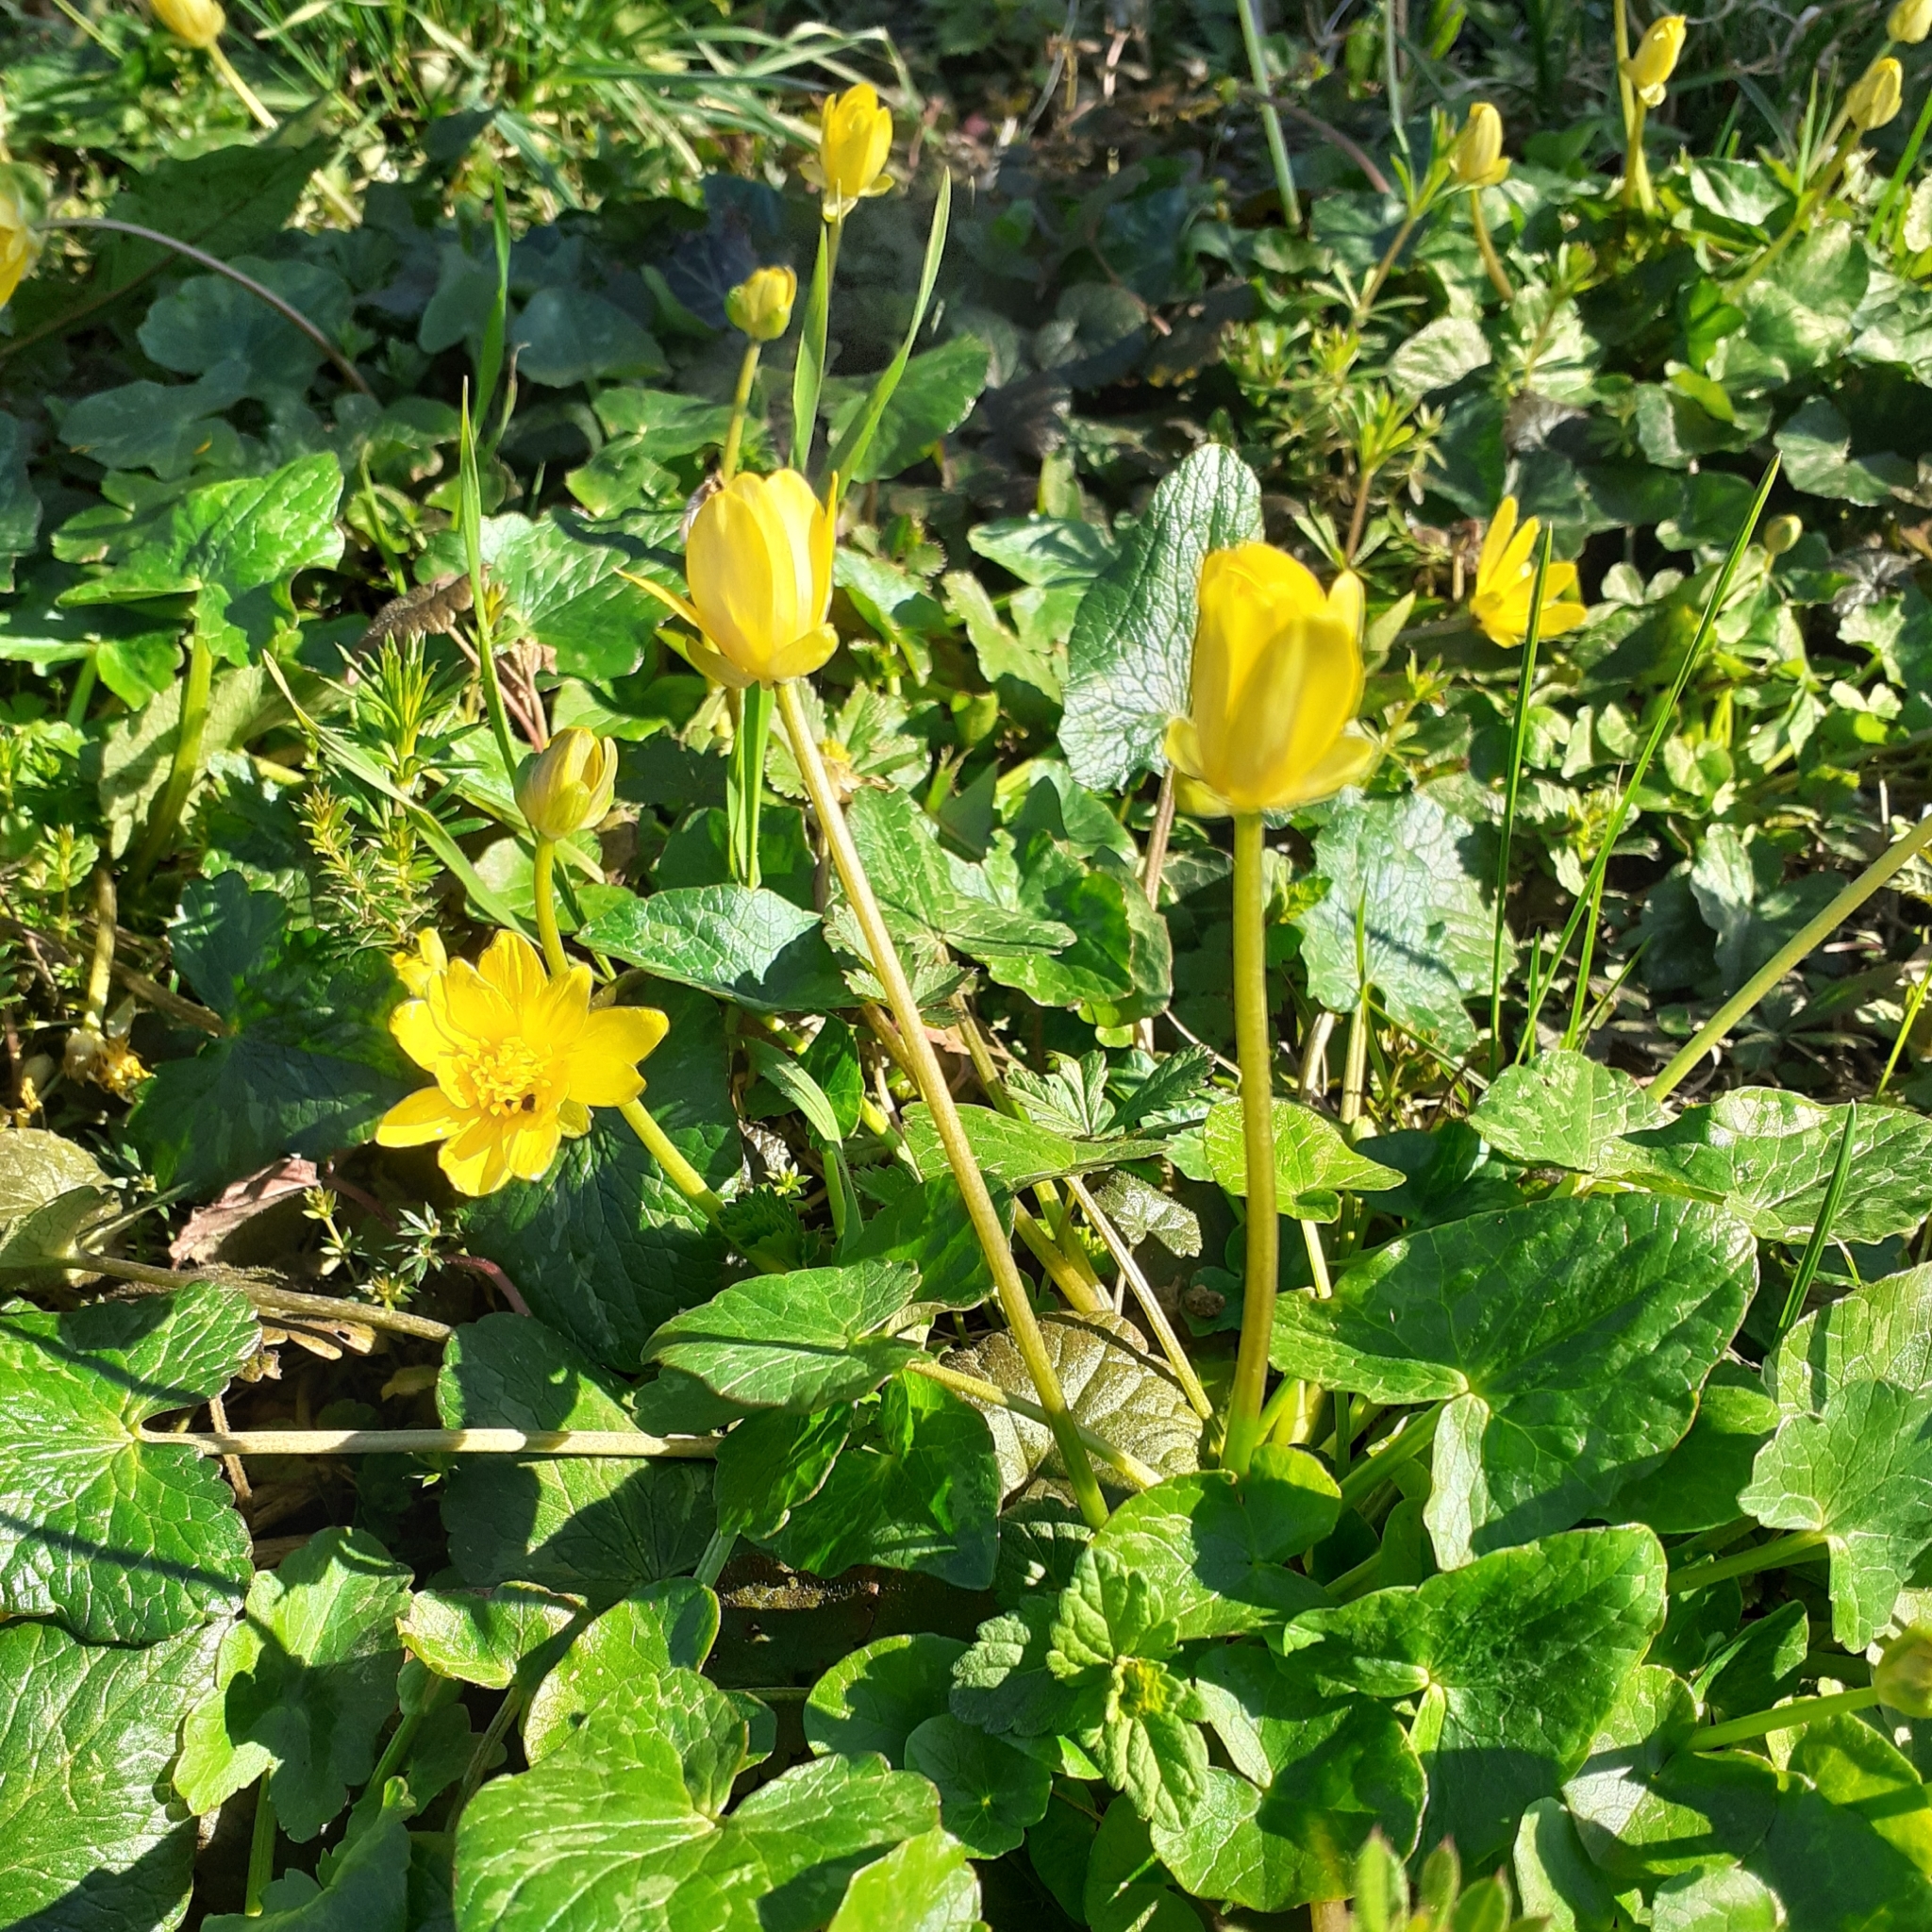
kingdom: Plantae
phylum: Tracheophyta
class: Magnoliopsida
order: Ranunculales
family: Ranunculaceae
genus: Ficaria
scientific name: Ficaria verna
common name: Lesser celandine
